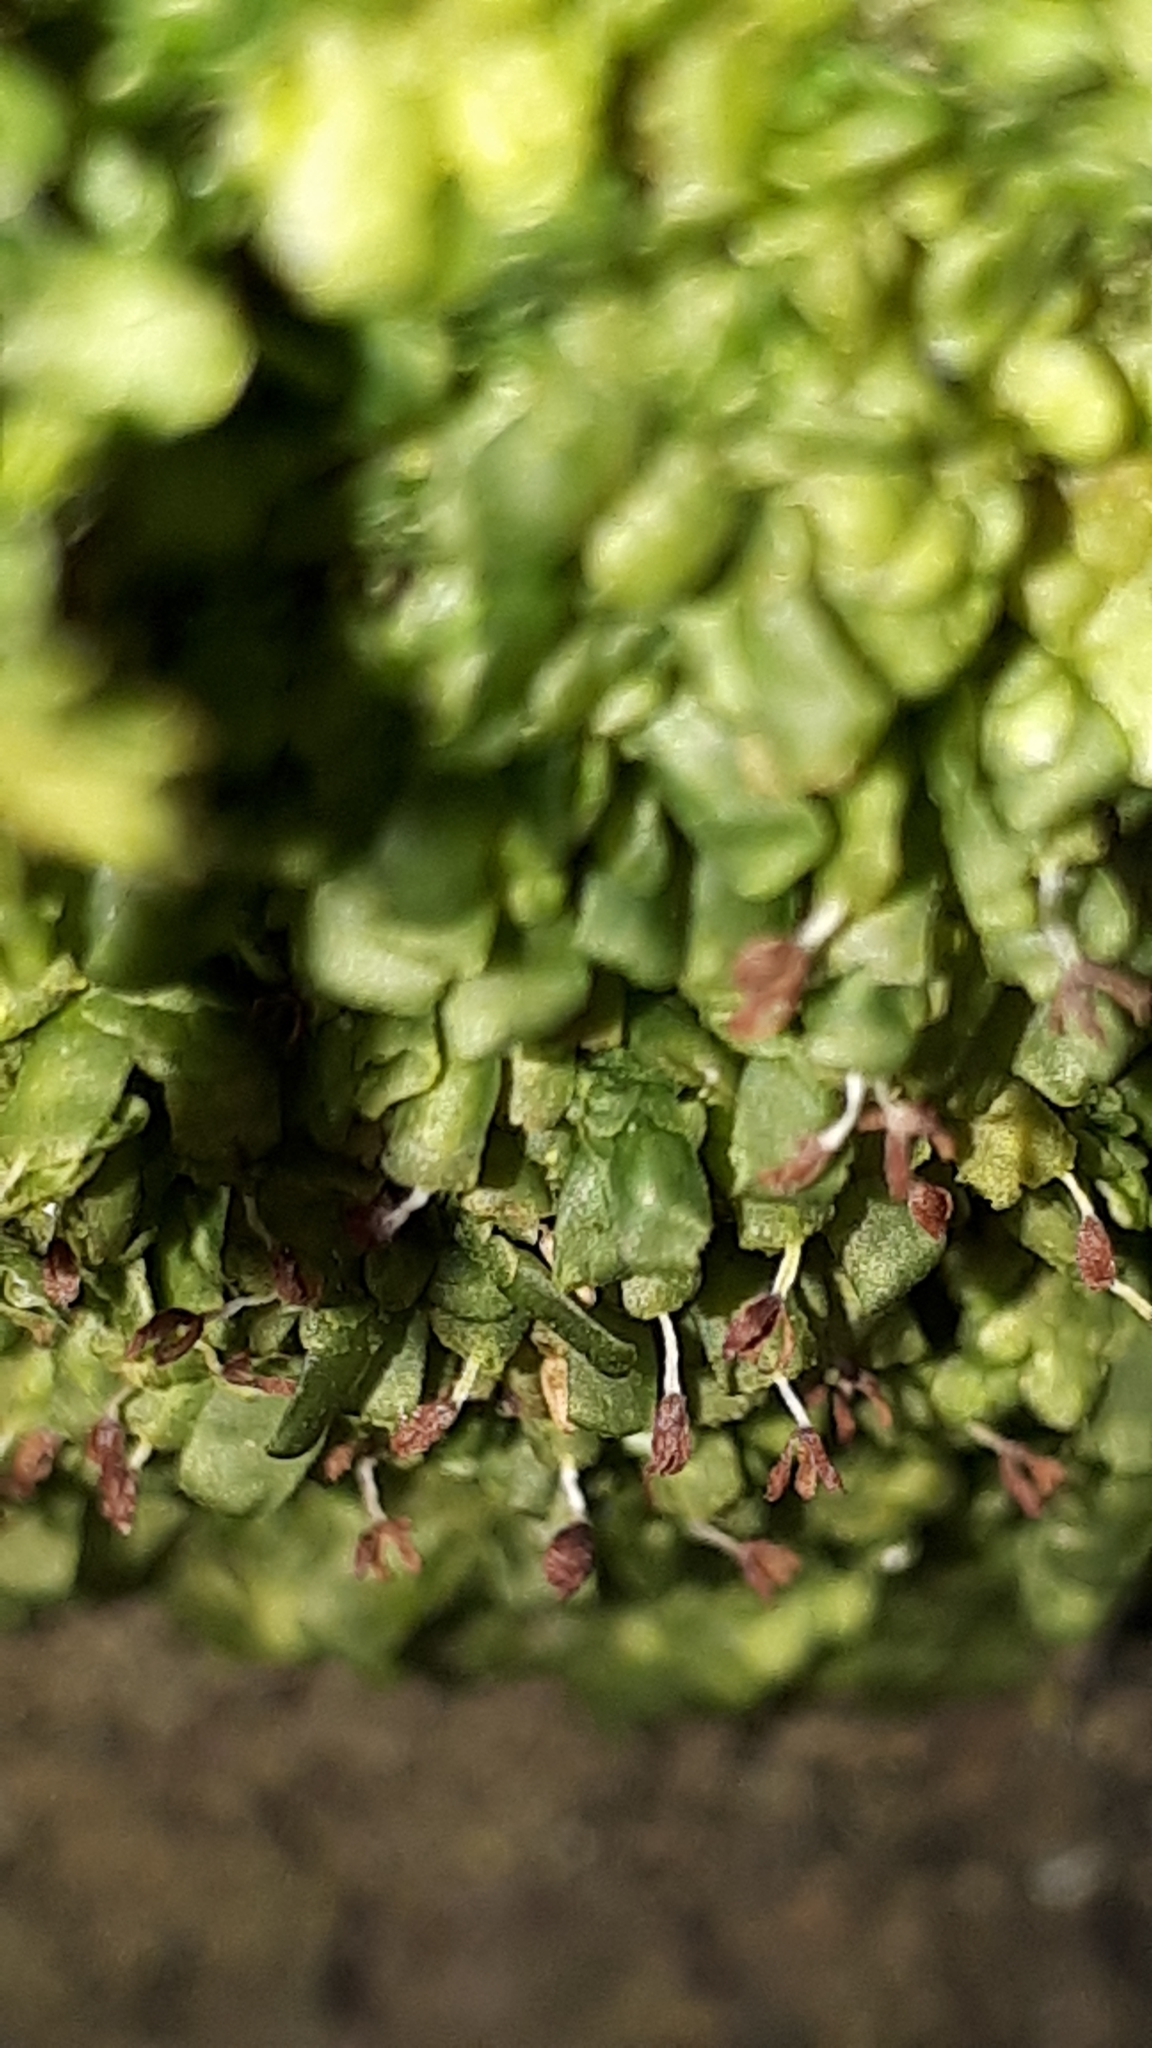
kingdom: Plantae
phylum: Marchantiophyta
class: Jungermanniopsida
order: Porellales
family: Radulaceae
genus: Radula
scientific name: Radula complanata
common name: Flat-leaved scalewort
